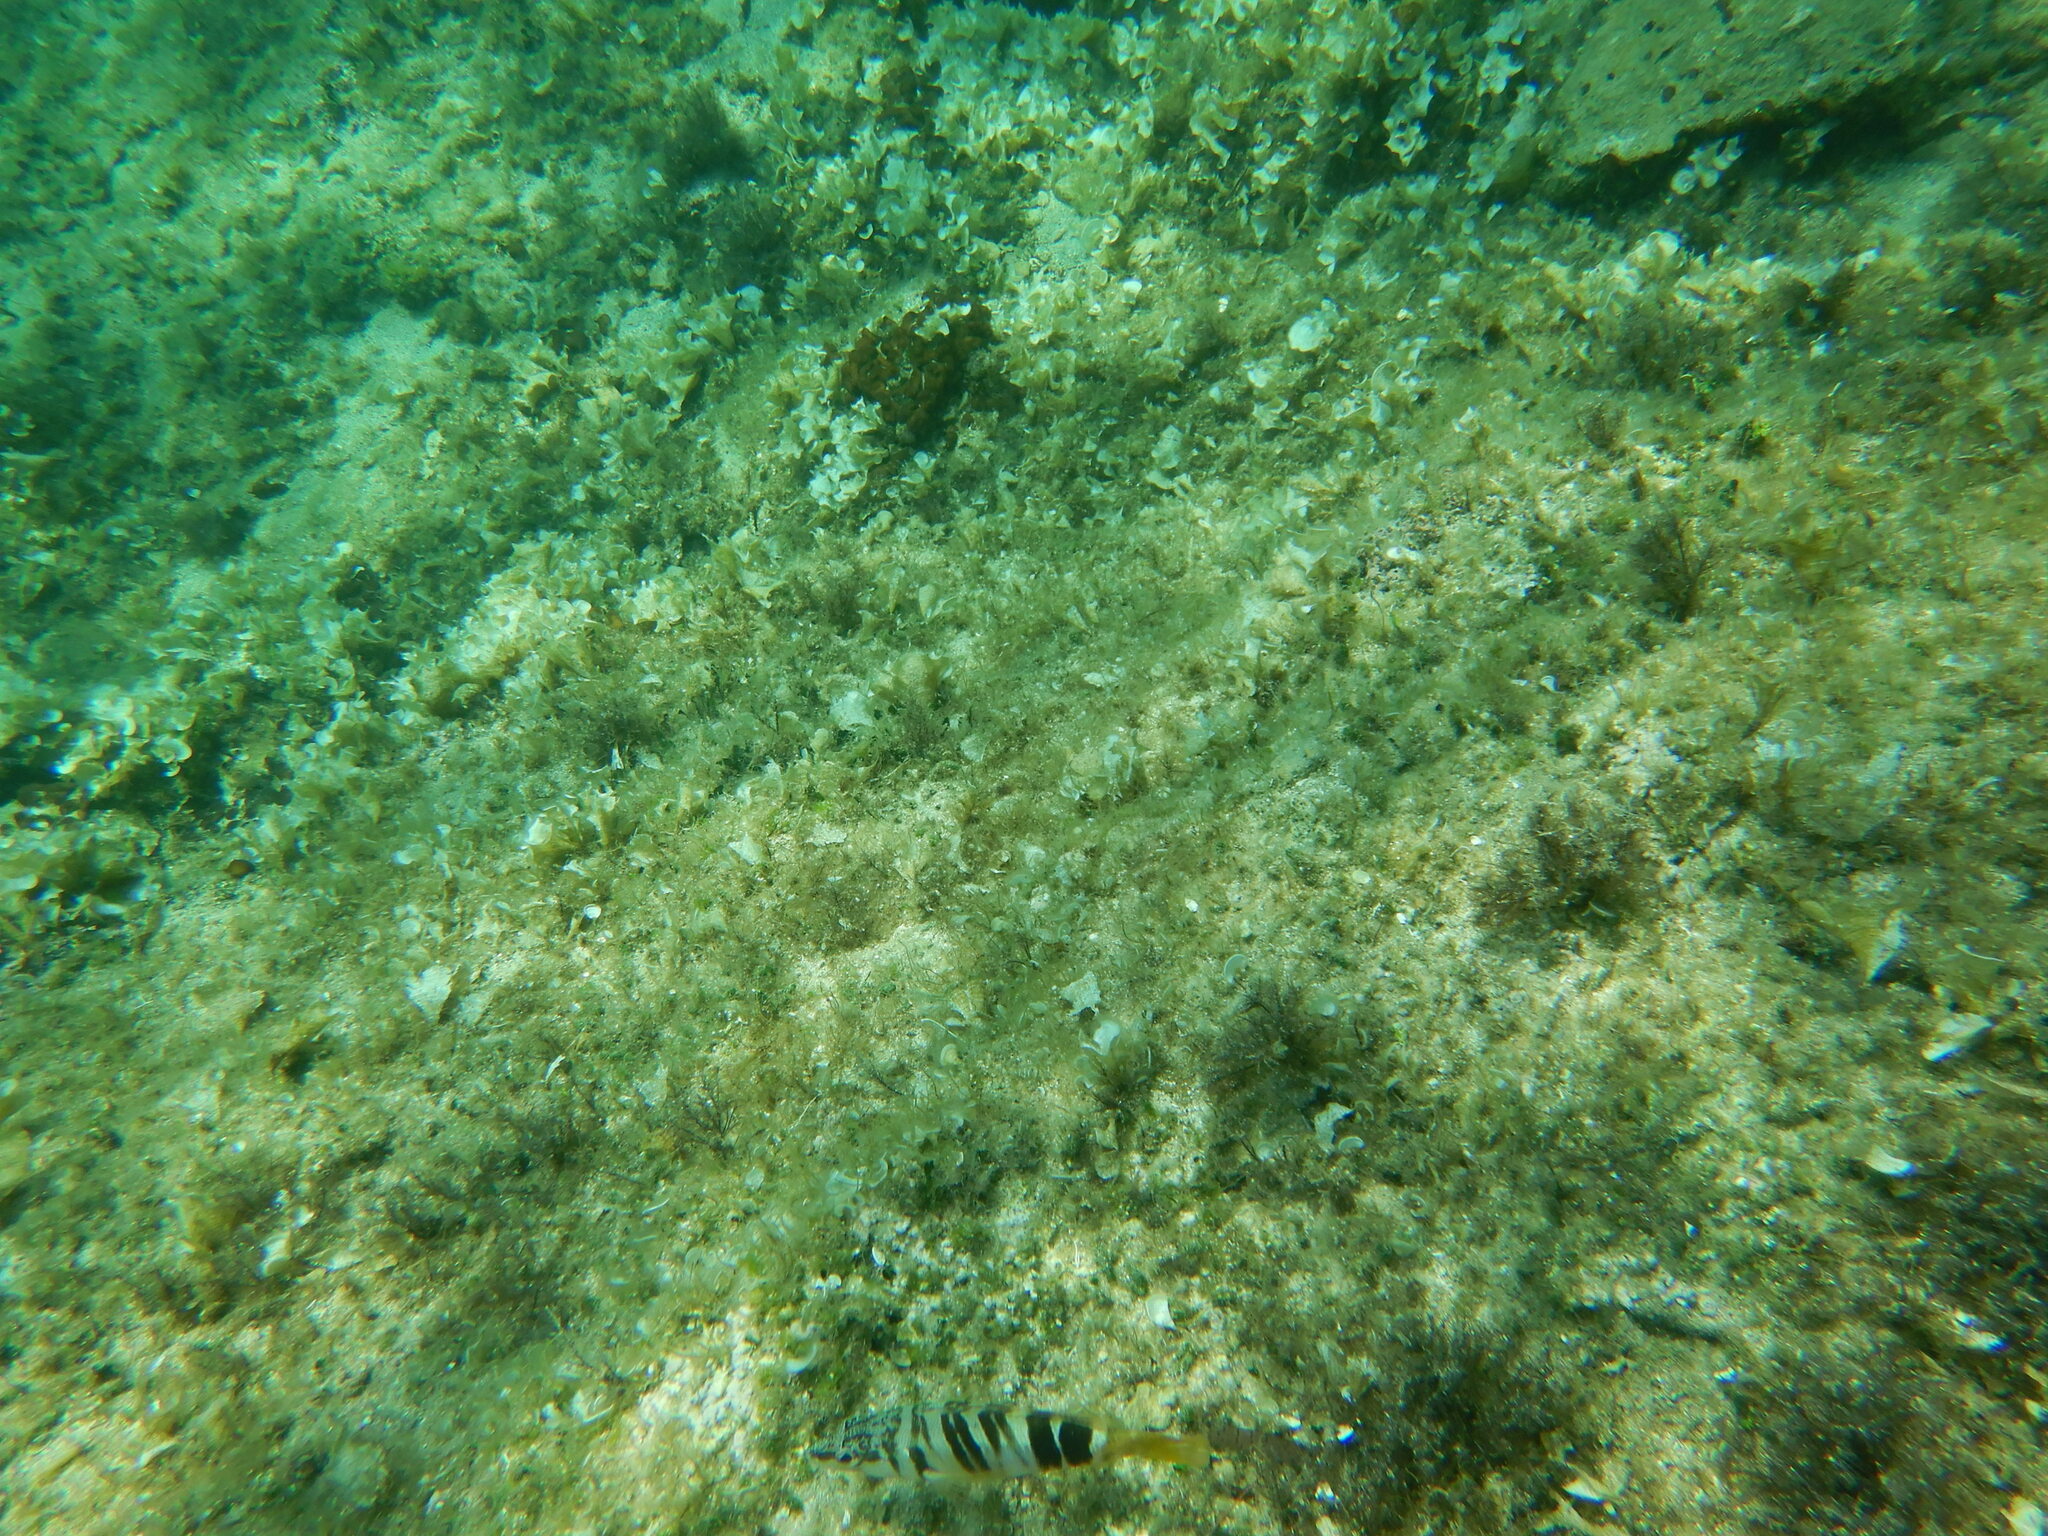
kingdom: Animalia
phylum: Chordata
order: Perciformes
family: Serranidae
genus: Serranus
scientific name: Serranus scriba
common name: Painted comber
